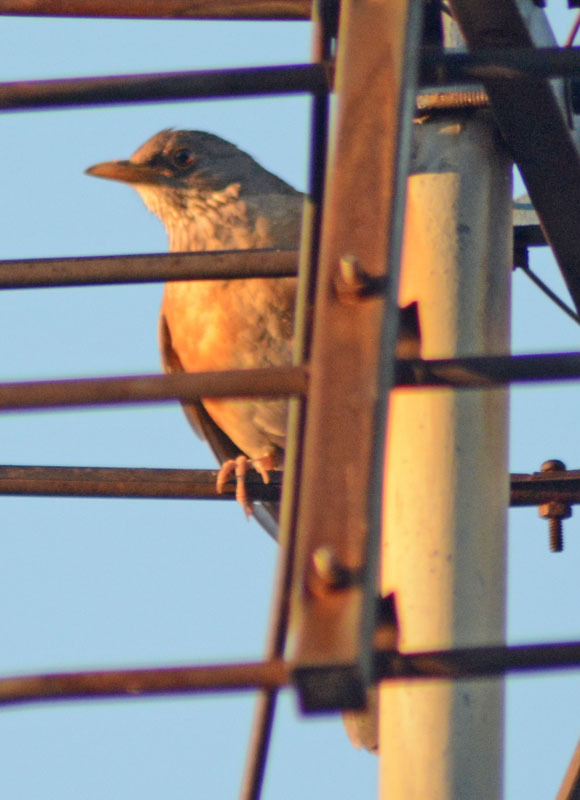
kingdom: Animalia
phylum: Chordata
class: Aves
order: Passeriformes
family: Turdidae
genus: Turdus
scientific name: Turdus rufopalliatus
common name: Rufous-backed robin
